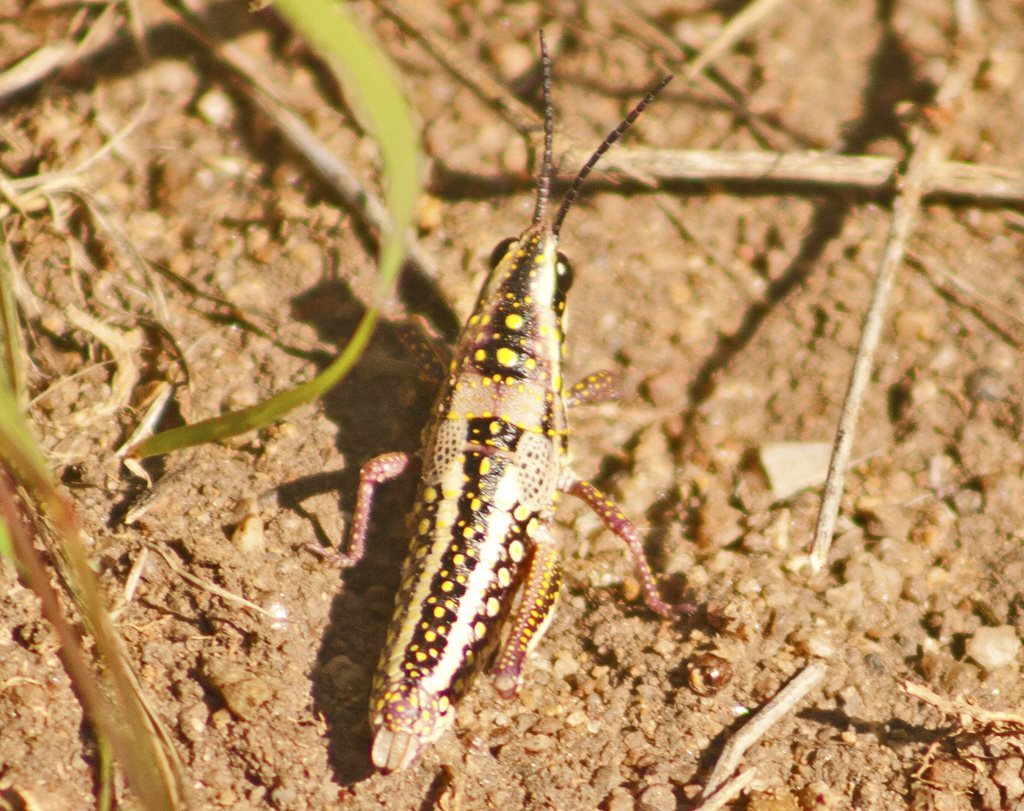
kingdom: Animalia
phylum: Arthropoda
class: Insecta
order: Orthoptera
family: Pyrgomorphidae
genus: Greyacris
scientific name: Greyacris profundesulcata
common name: Queensland spotted pyrgomorph
